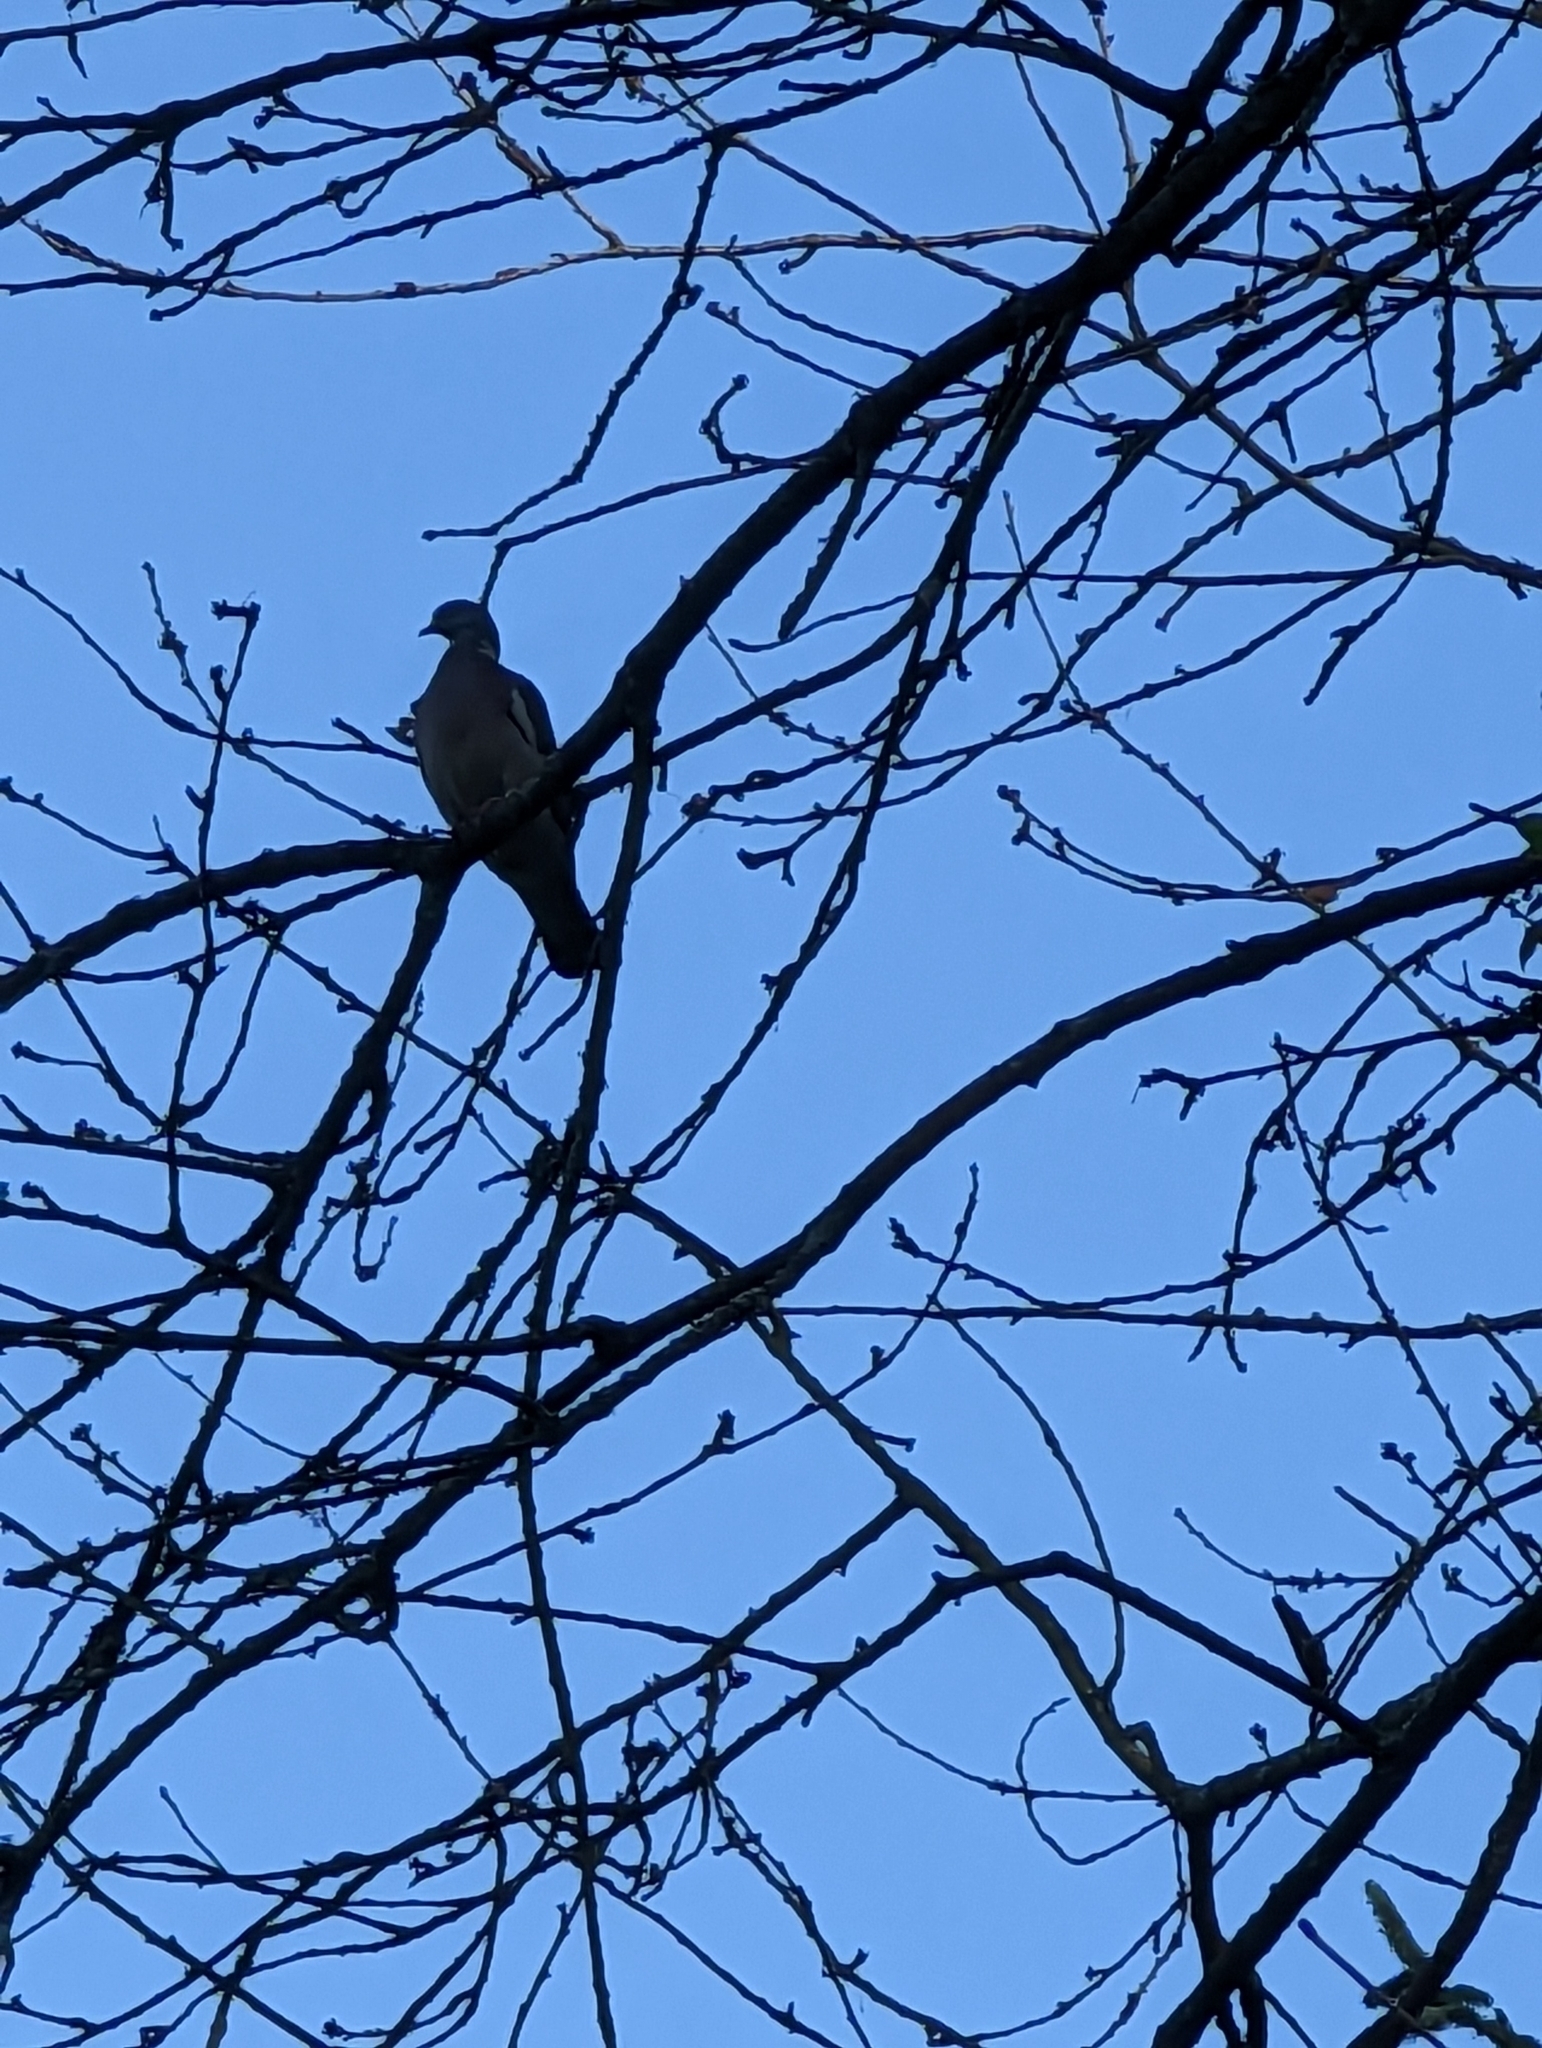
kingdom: Animalia
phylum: Chordata
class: Aves
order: Columbiformes
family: Columbidae
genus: Columba
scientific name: Columba palumbus
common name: Common wood pigeon
